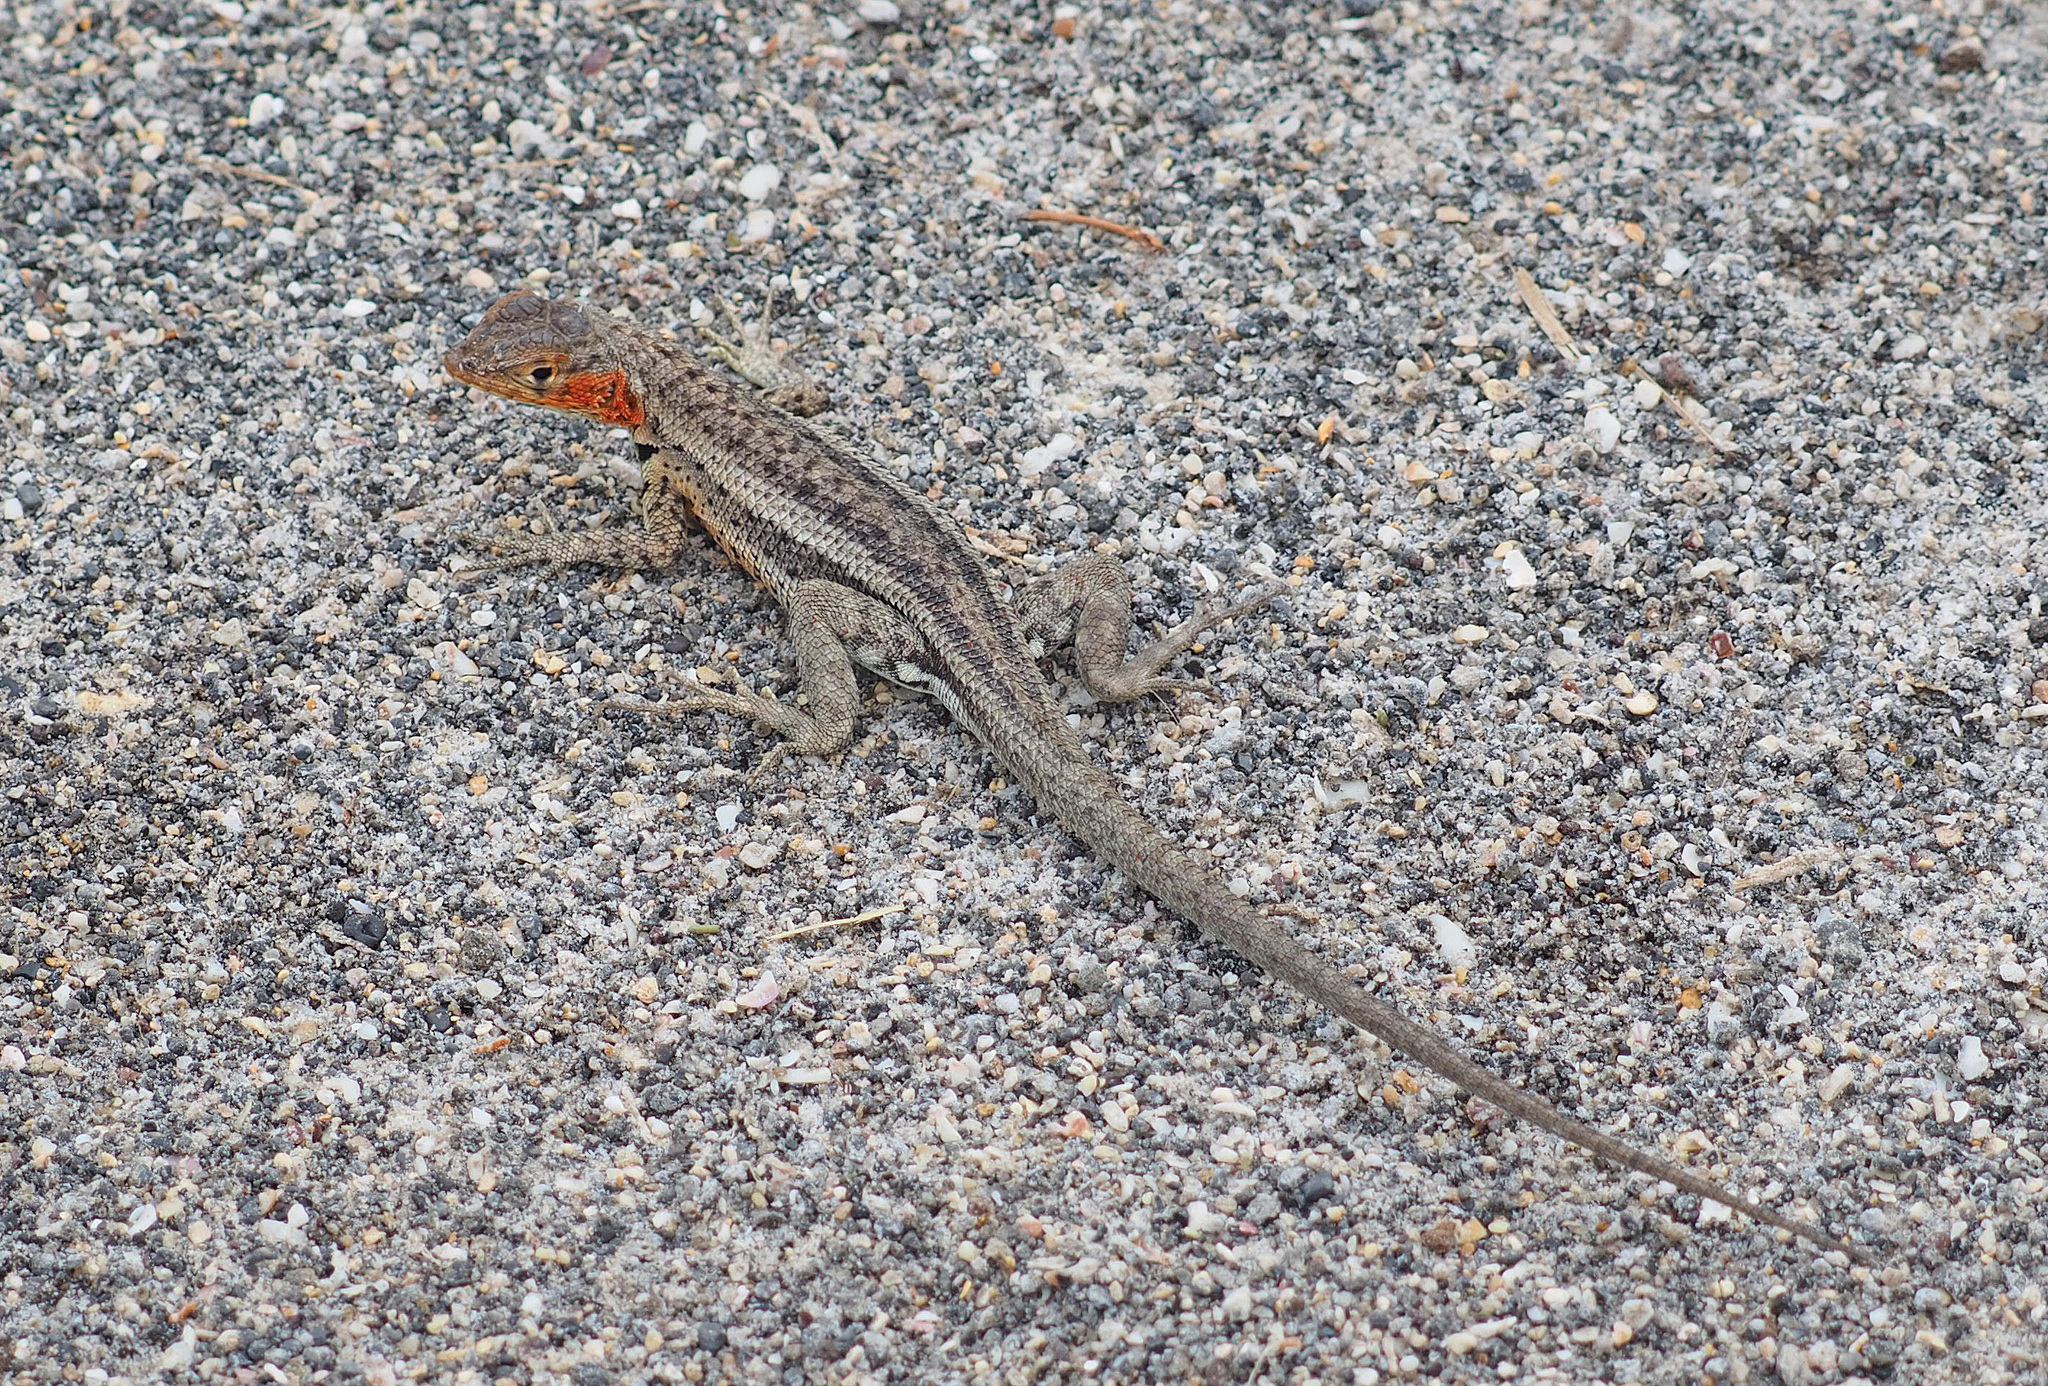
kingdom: Animalia
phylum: Chordata
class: Squamata
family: Tropiduridae
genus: Microlophus
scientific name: Microlophus albemarlensis
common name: Galapagos lava lizard
